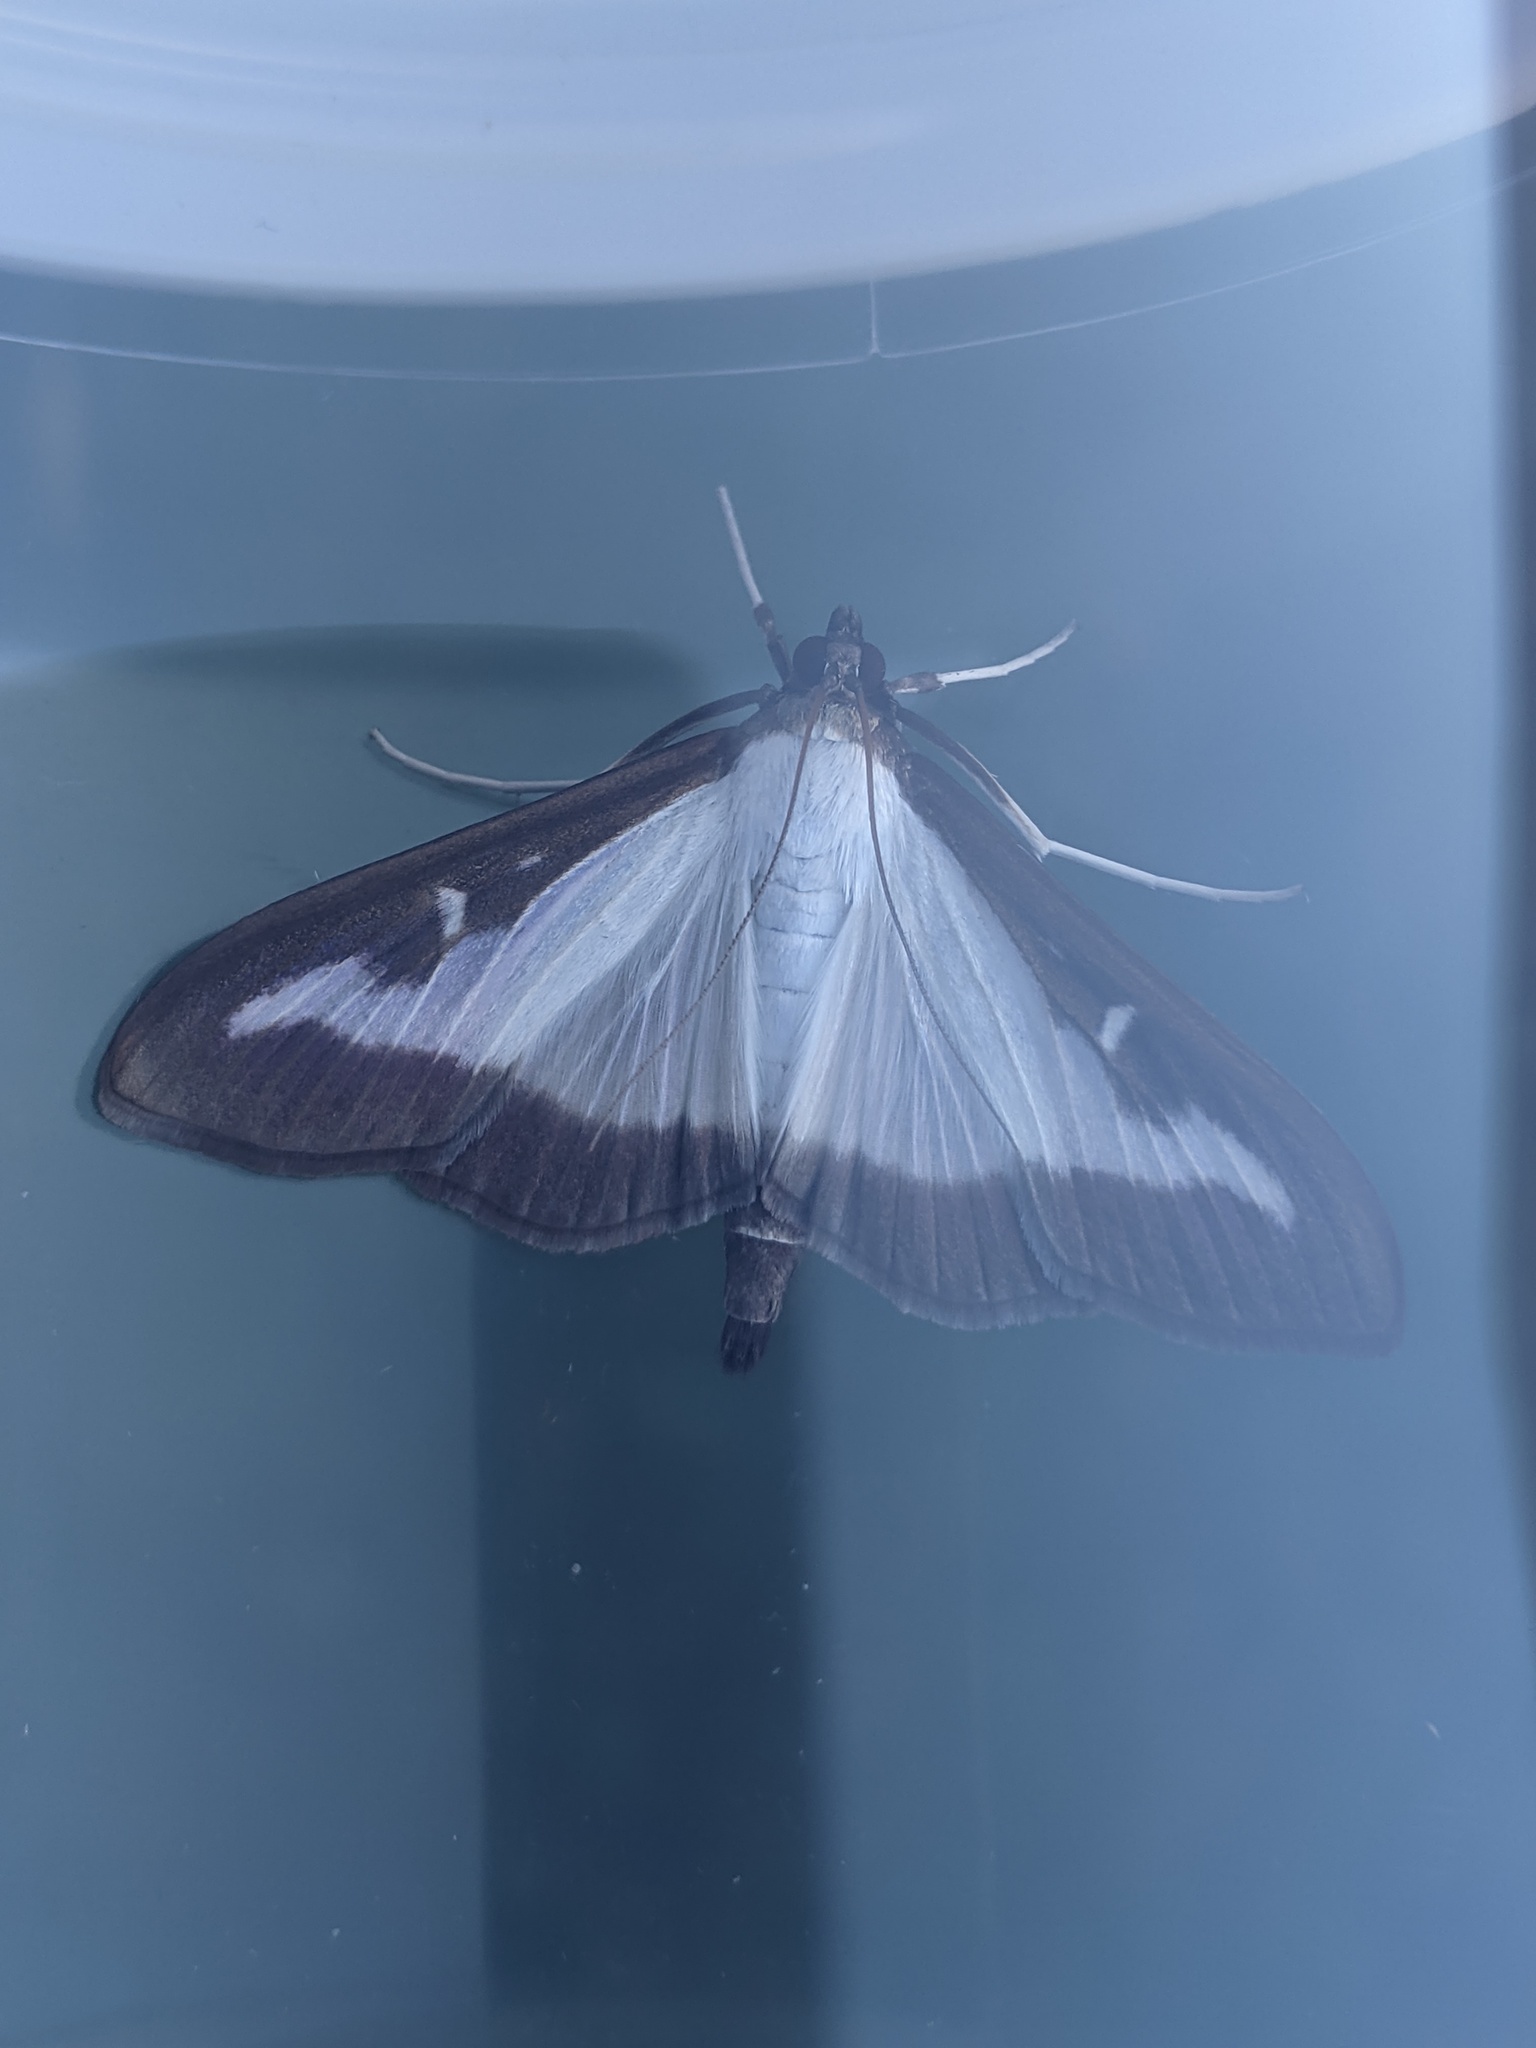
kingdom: Animalia
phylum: Arthropoda
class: Insecta
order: Lepidoptera
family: Crambidae
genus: Cydalima
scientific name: Cydalima perspectalis
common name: Box tree moth
